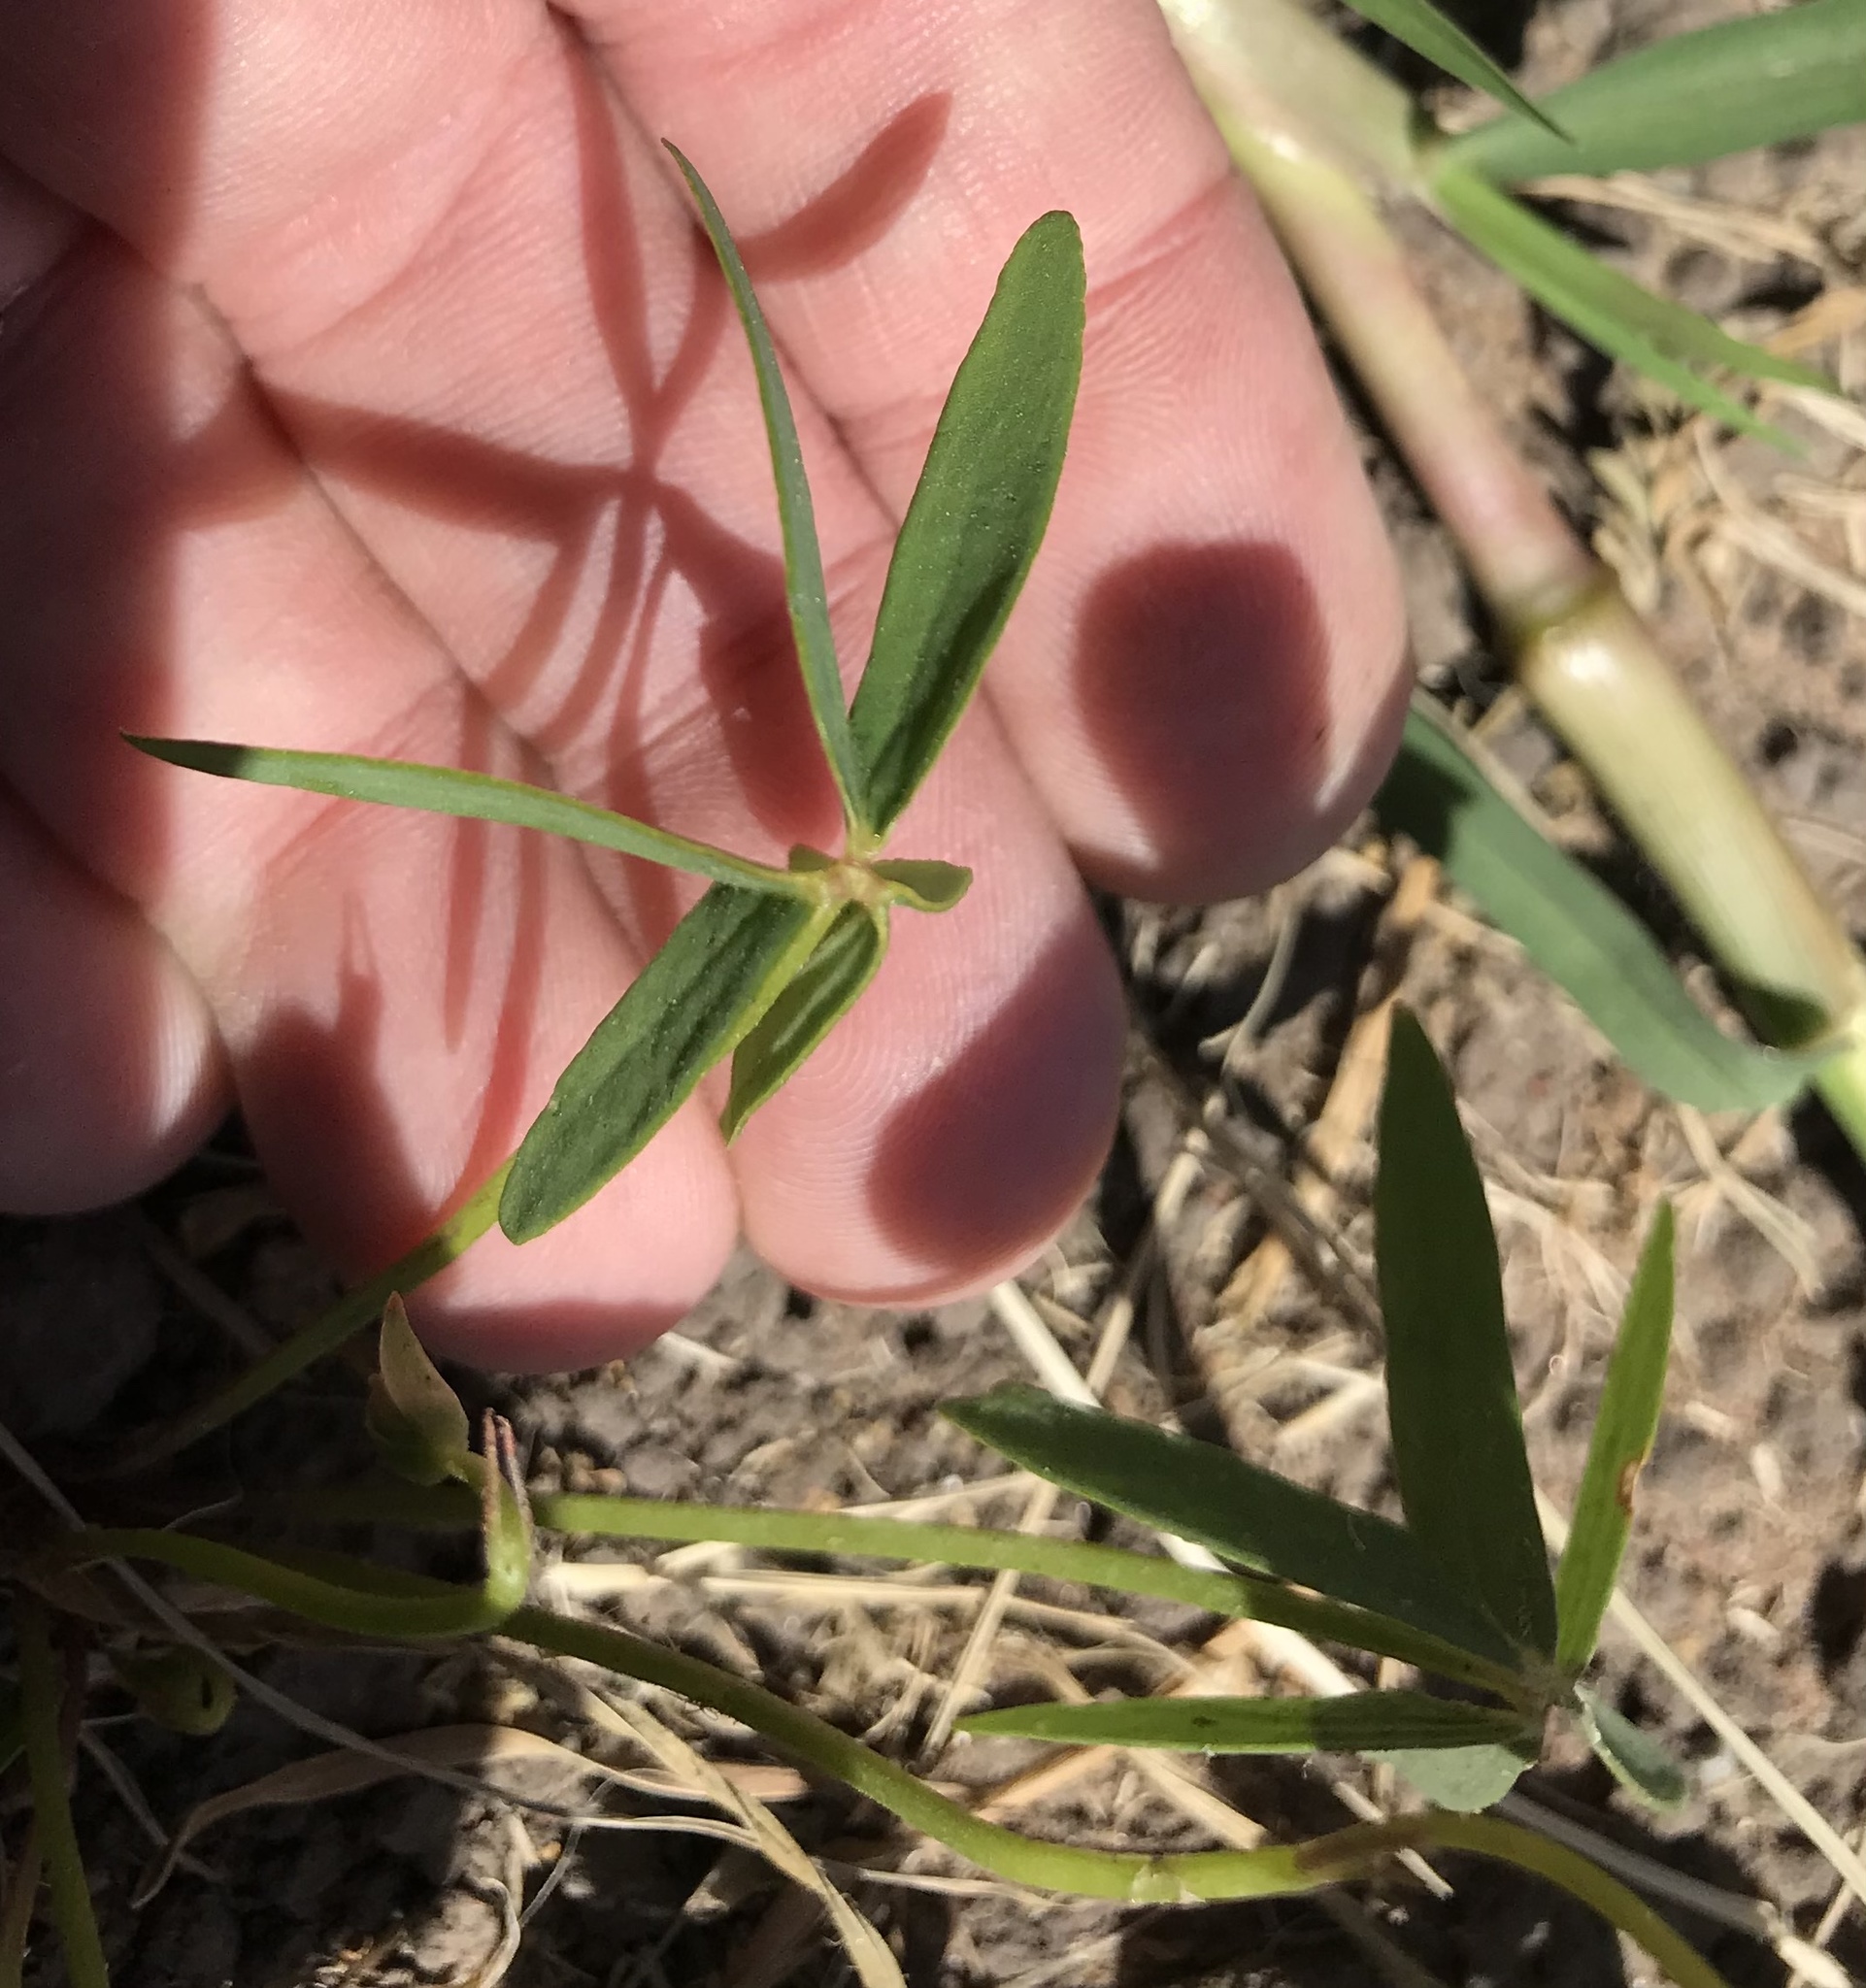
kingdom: Plantae
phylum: Tracheophyta
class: Magnoliopsida
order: Oxalidales
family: Oxalidaceae
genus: Oxalis
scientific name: Oxalis smithiana
